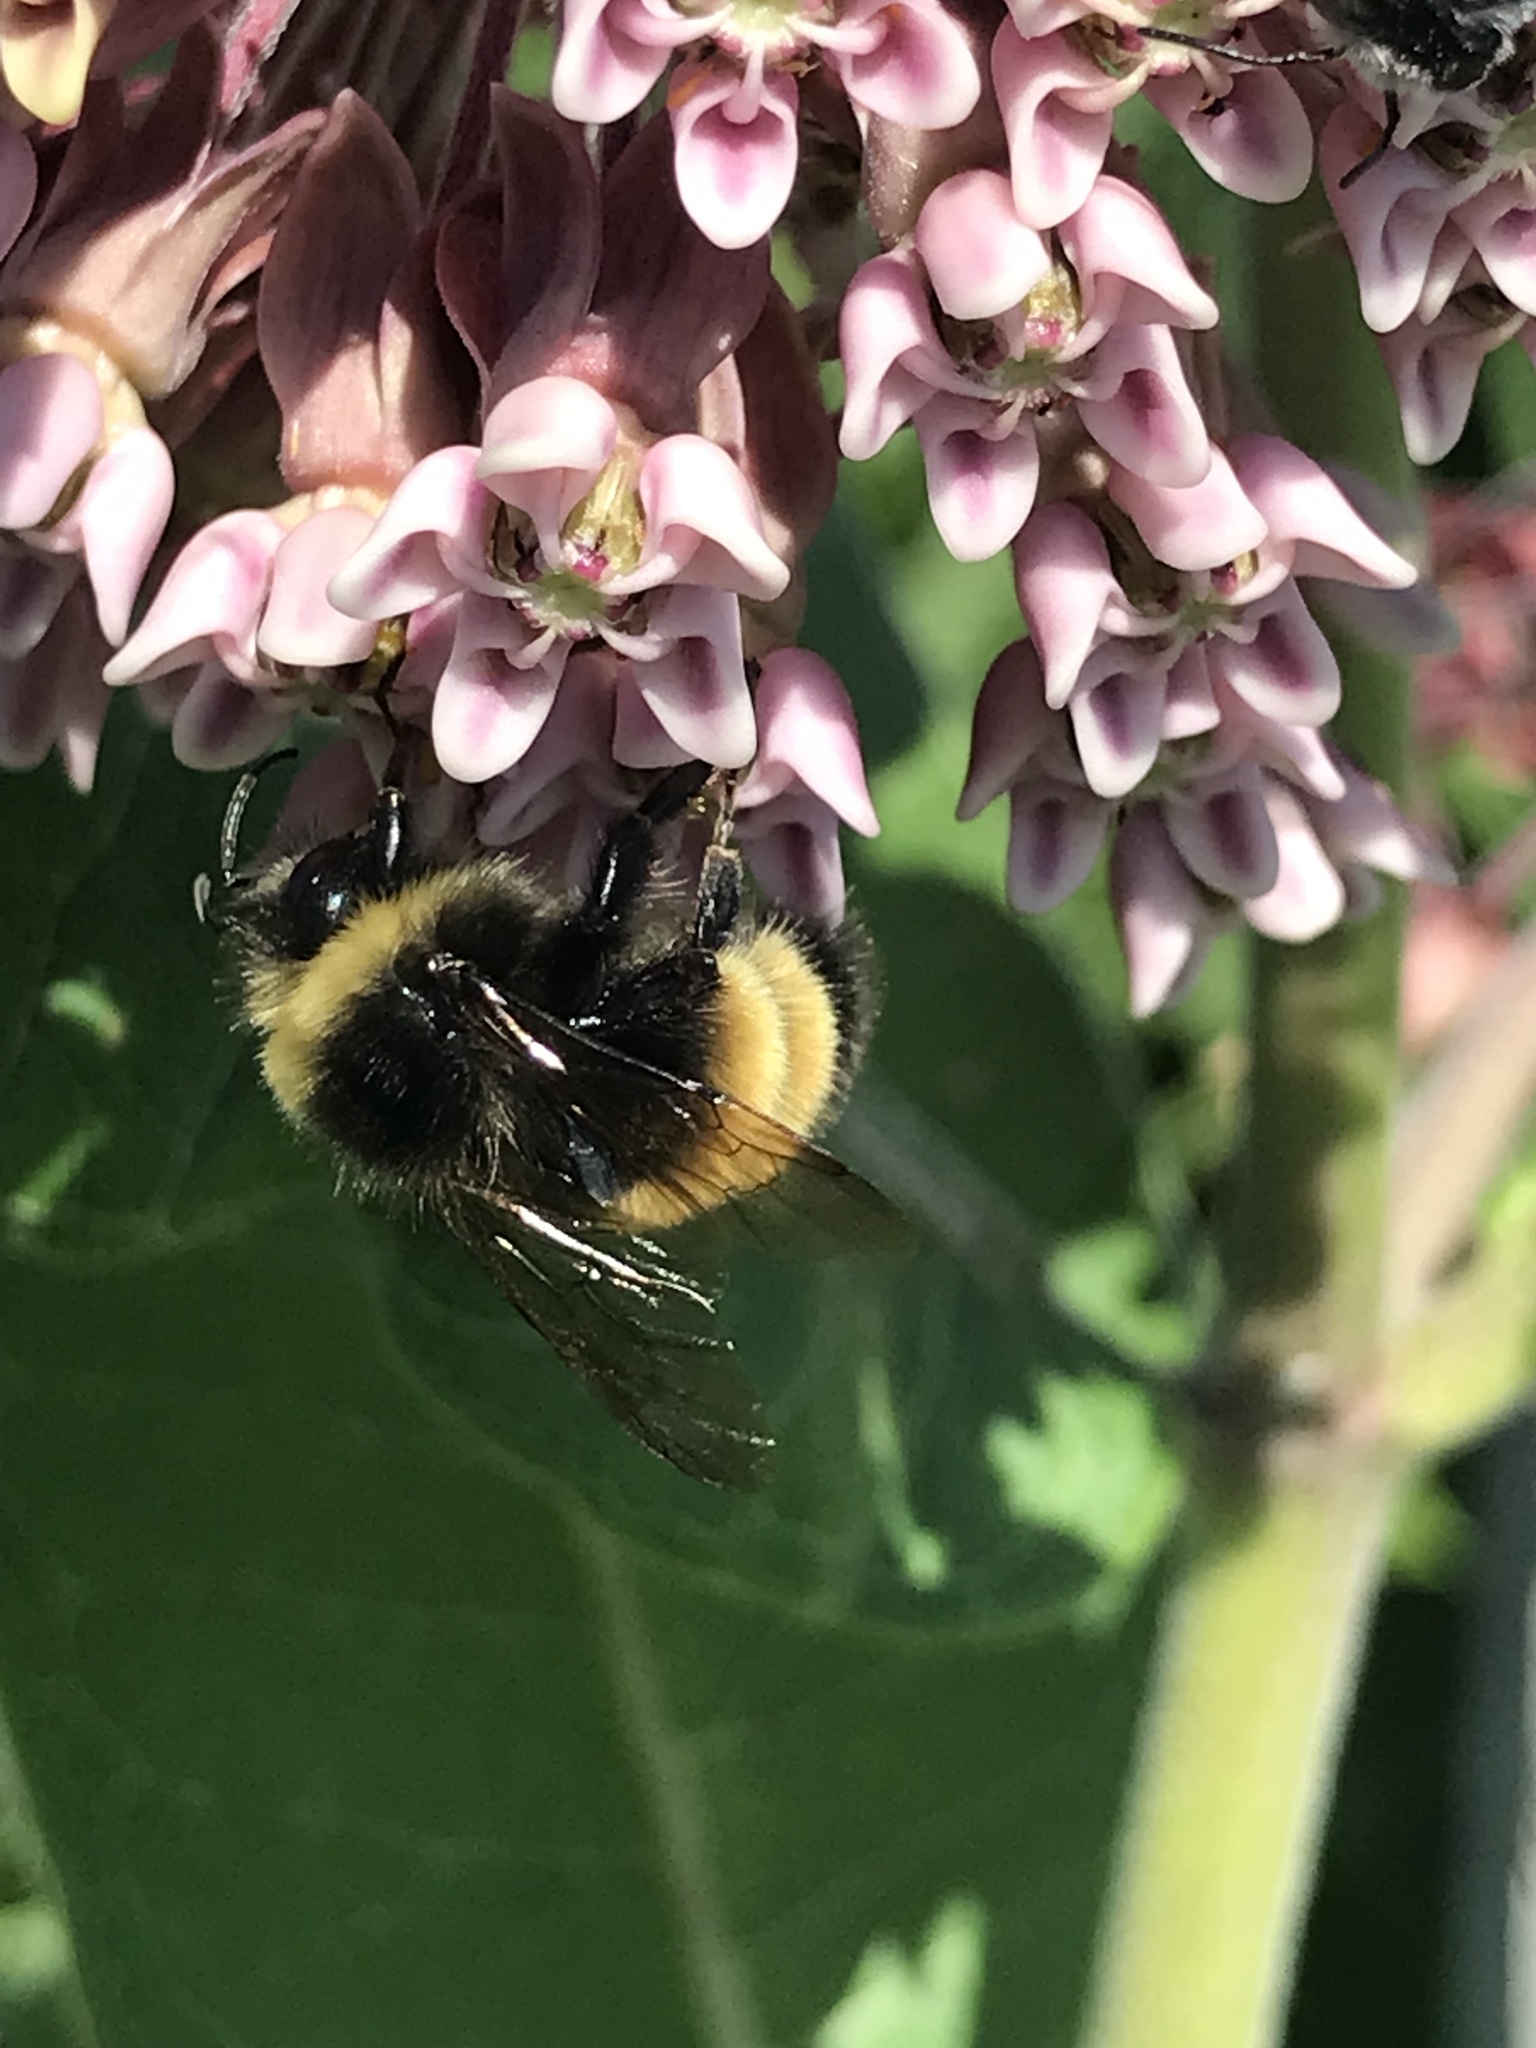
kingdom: Animalia
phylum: Arthropoda
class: Insecta
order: Hymenoptera
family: Apidae
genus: Bombus
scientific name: Bombus terricola
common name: Yellow-banded bumble bee
